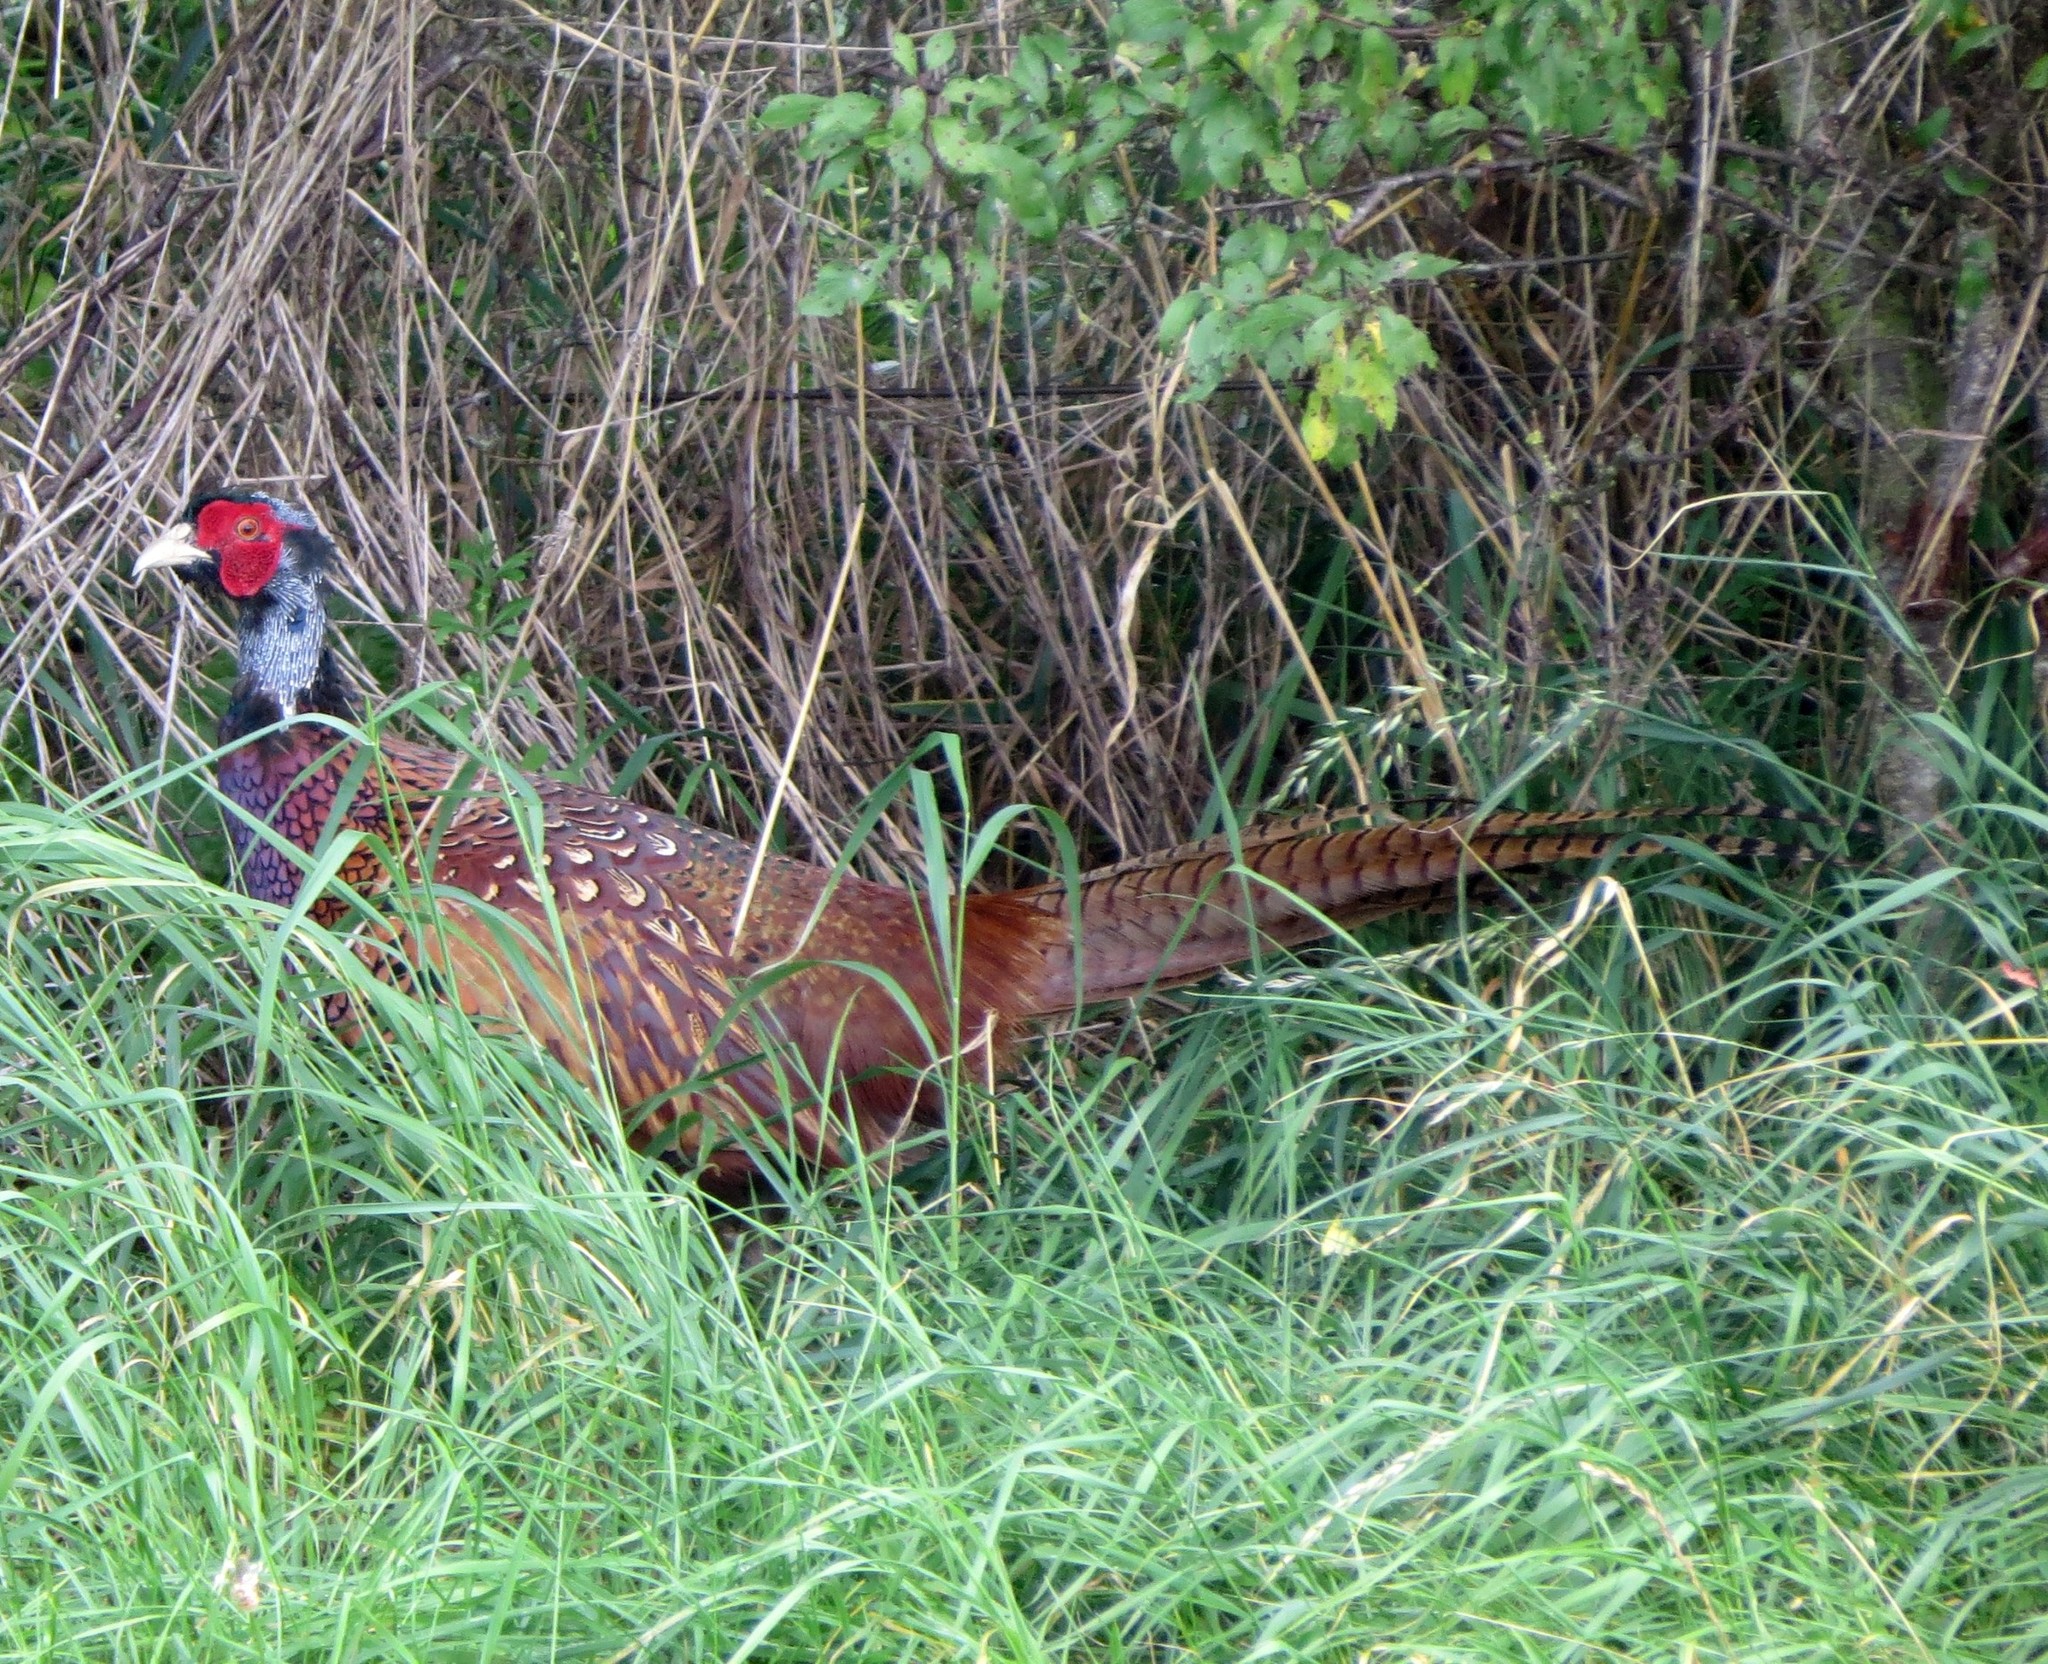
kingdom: Animalia
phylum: Chordata
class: Aves
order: Galliformes
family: Phasianidae
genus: Phasianus
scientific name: Phasianus colchicus
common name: Common pheasant
